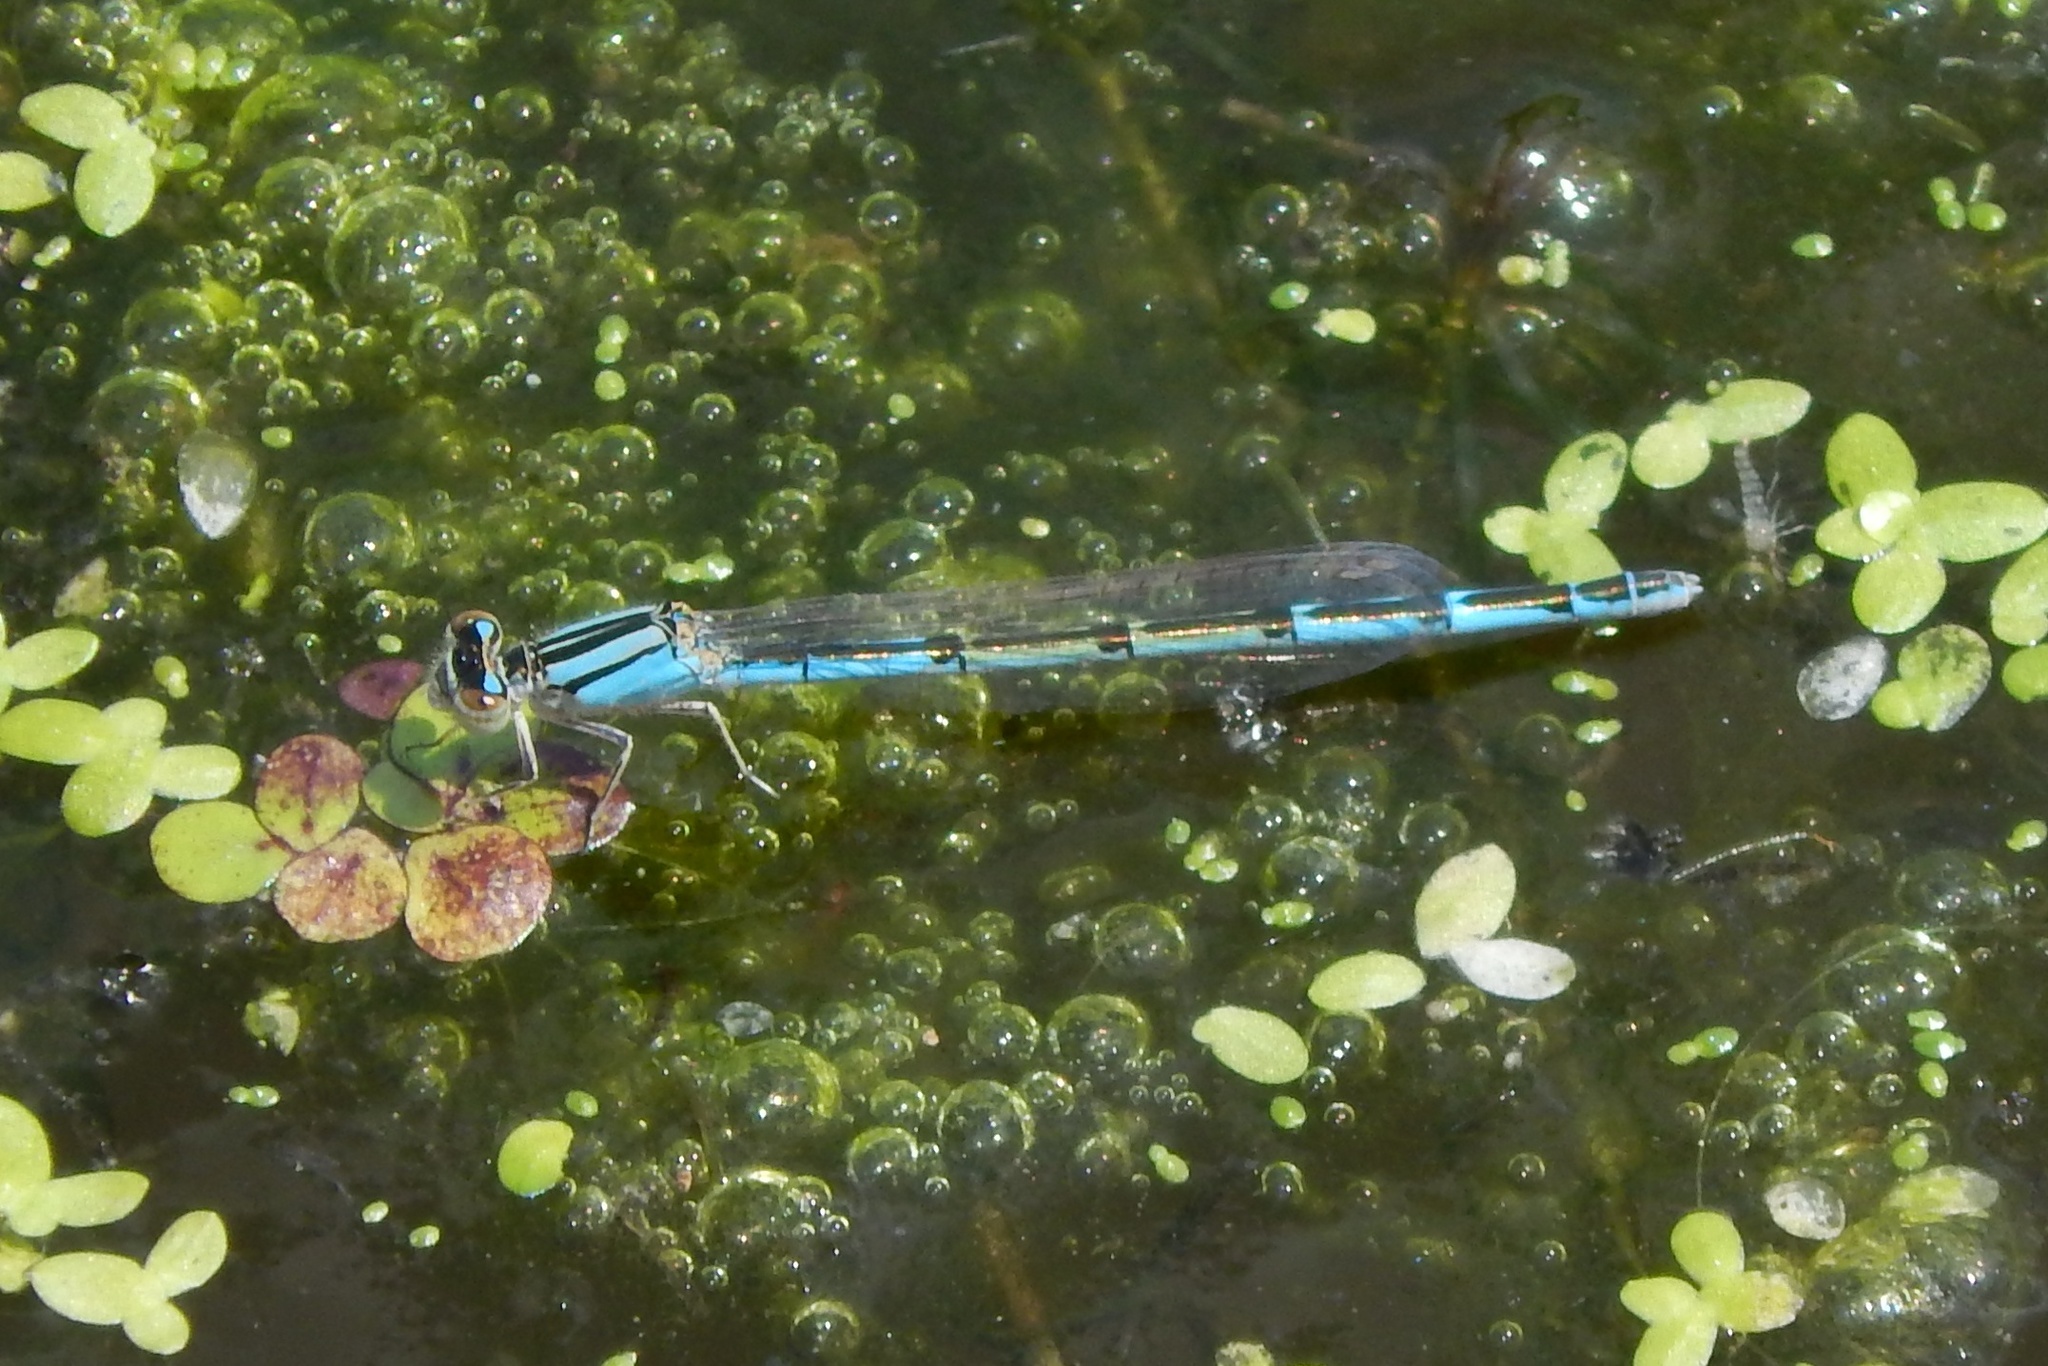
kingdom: Animalia
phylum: Arthropoda
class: Insecta
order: Odonata
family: Coenagrionidae
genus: Enallagma
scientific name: Enallagma durum
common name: Big bluet
